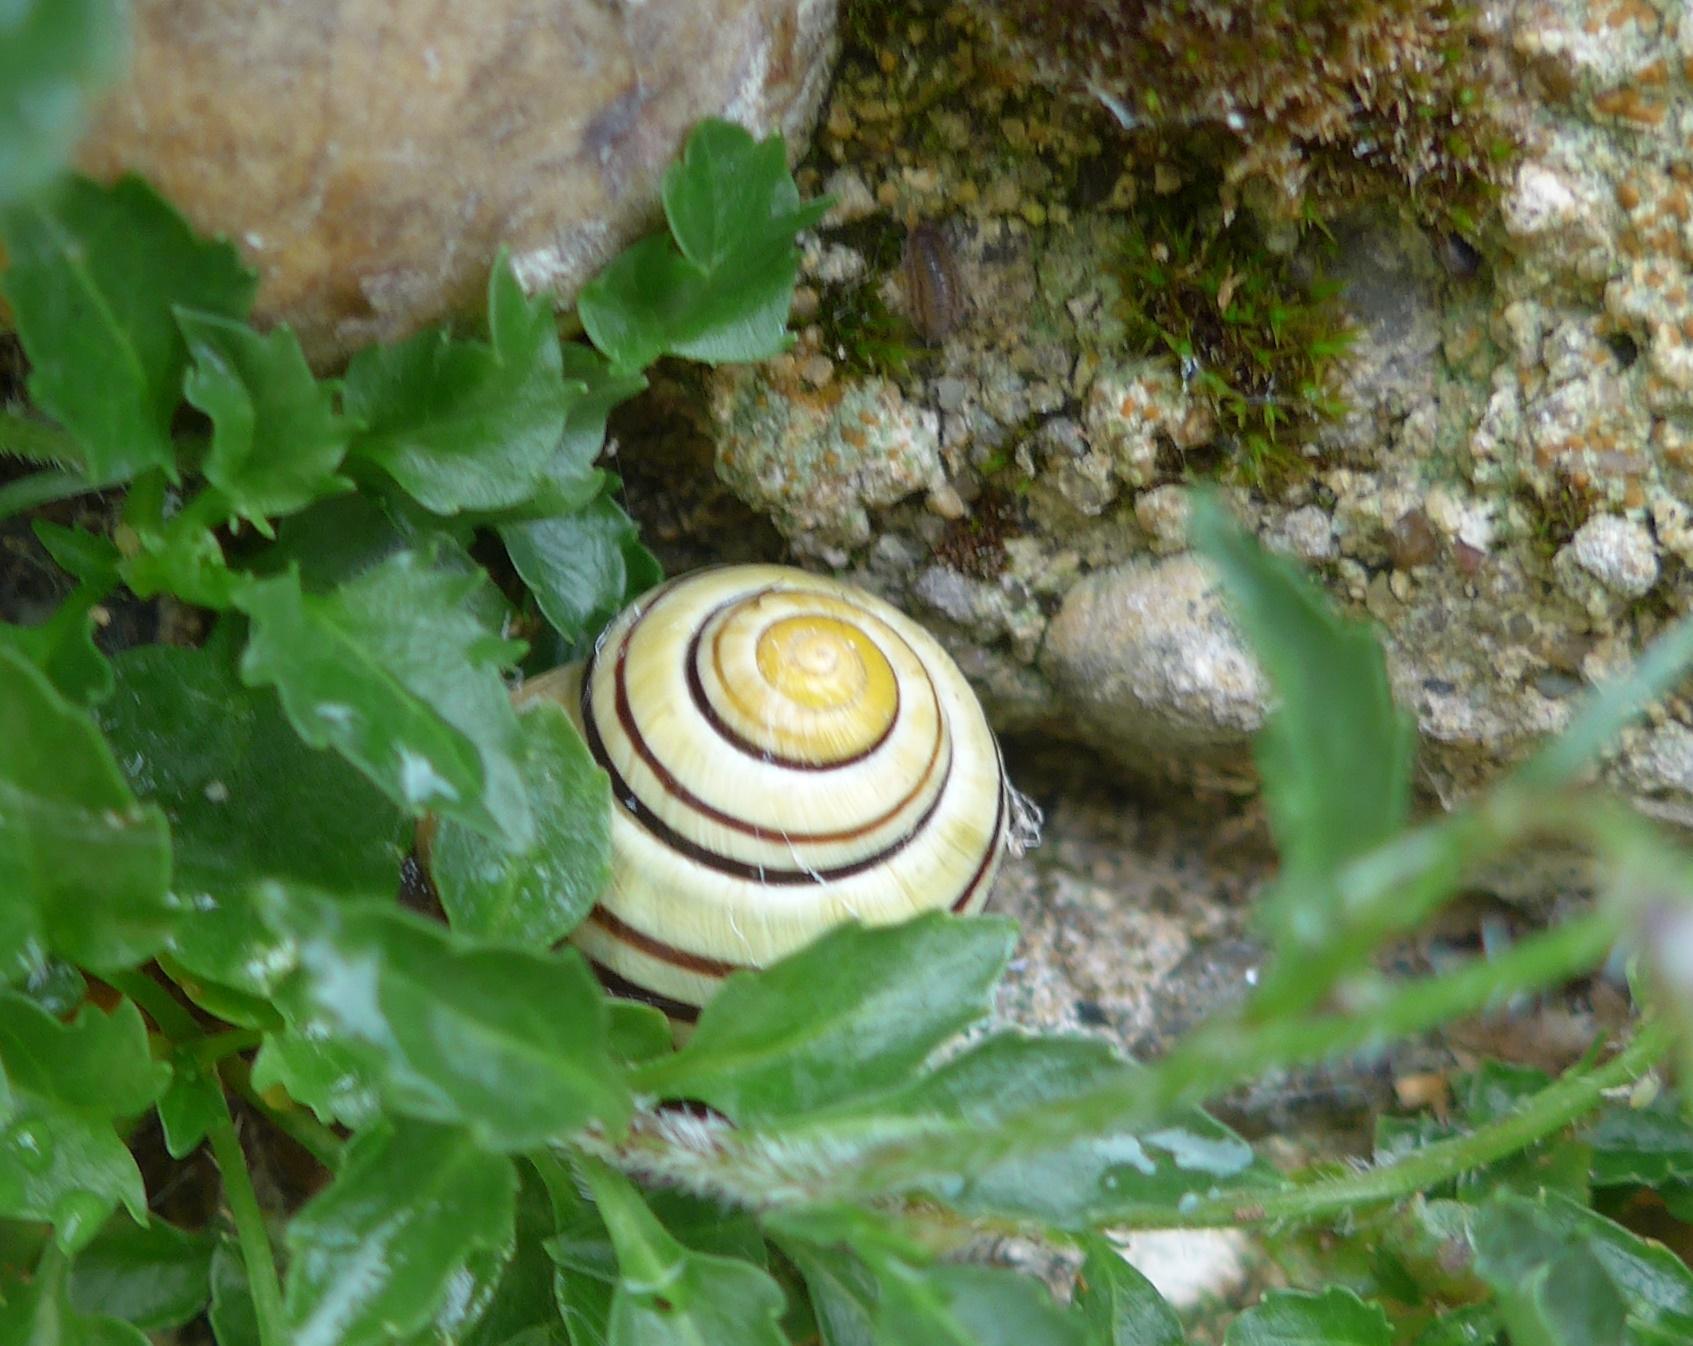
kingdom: Animalia
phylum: Mollusca
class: Gastropoda
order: Stylommatophora
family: Helicidae
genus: Cepaea
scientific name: Cepaea hortensis
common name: White-lip gardensnail
